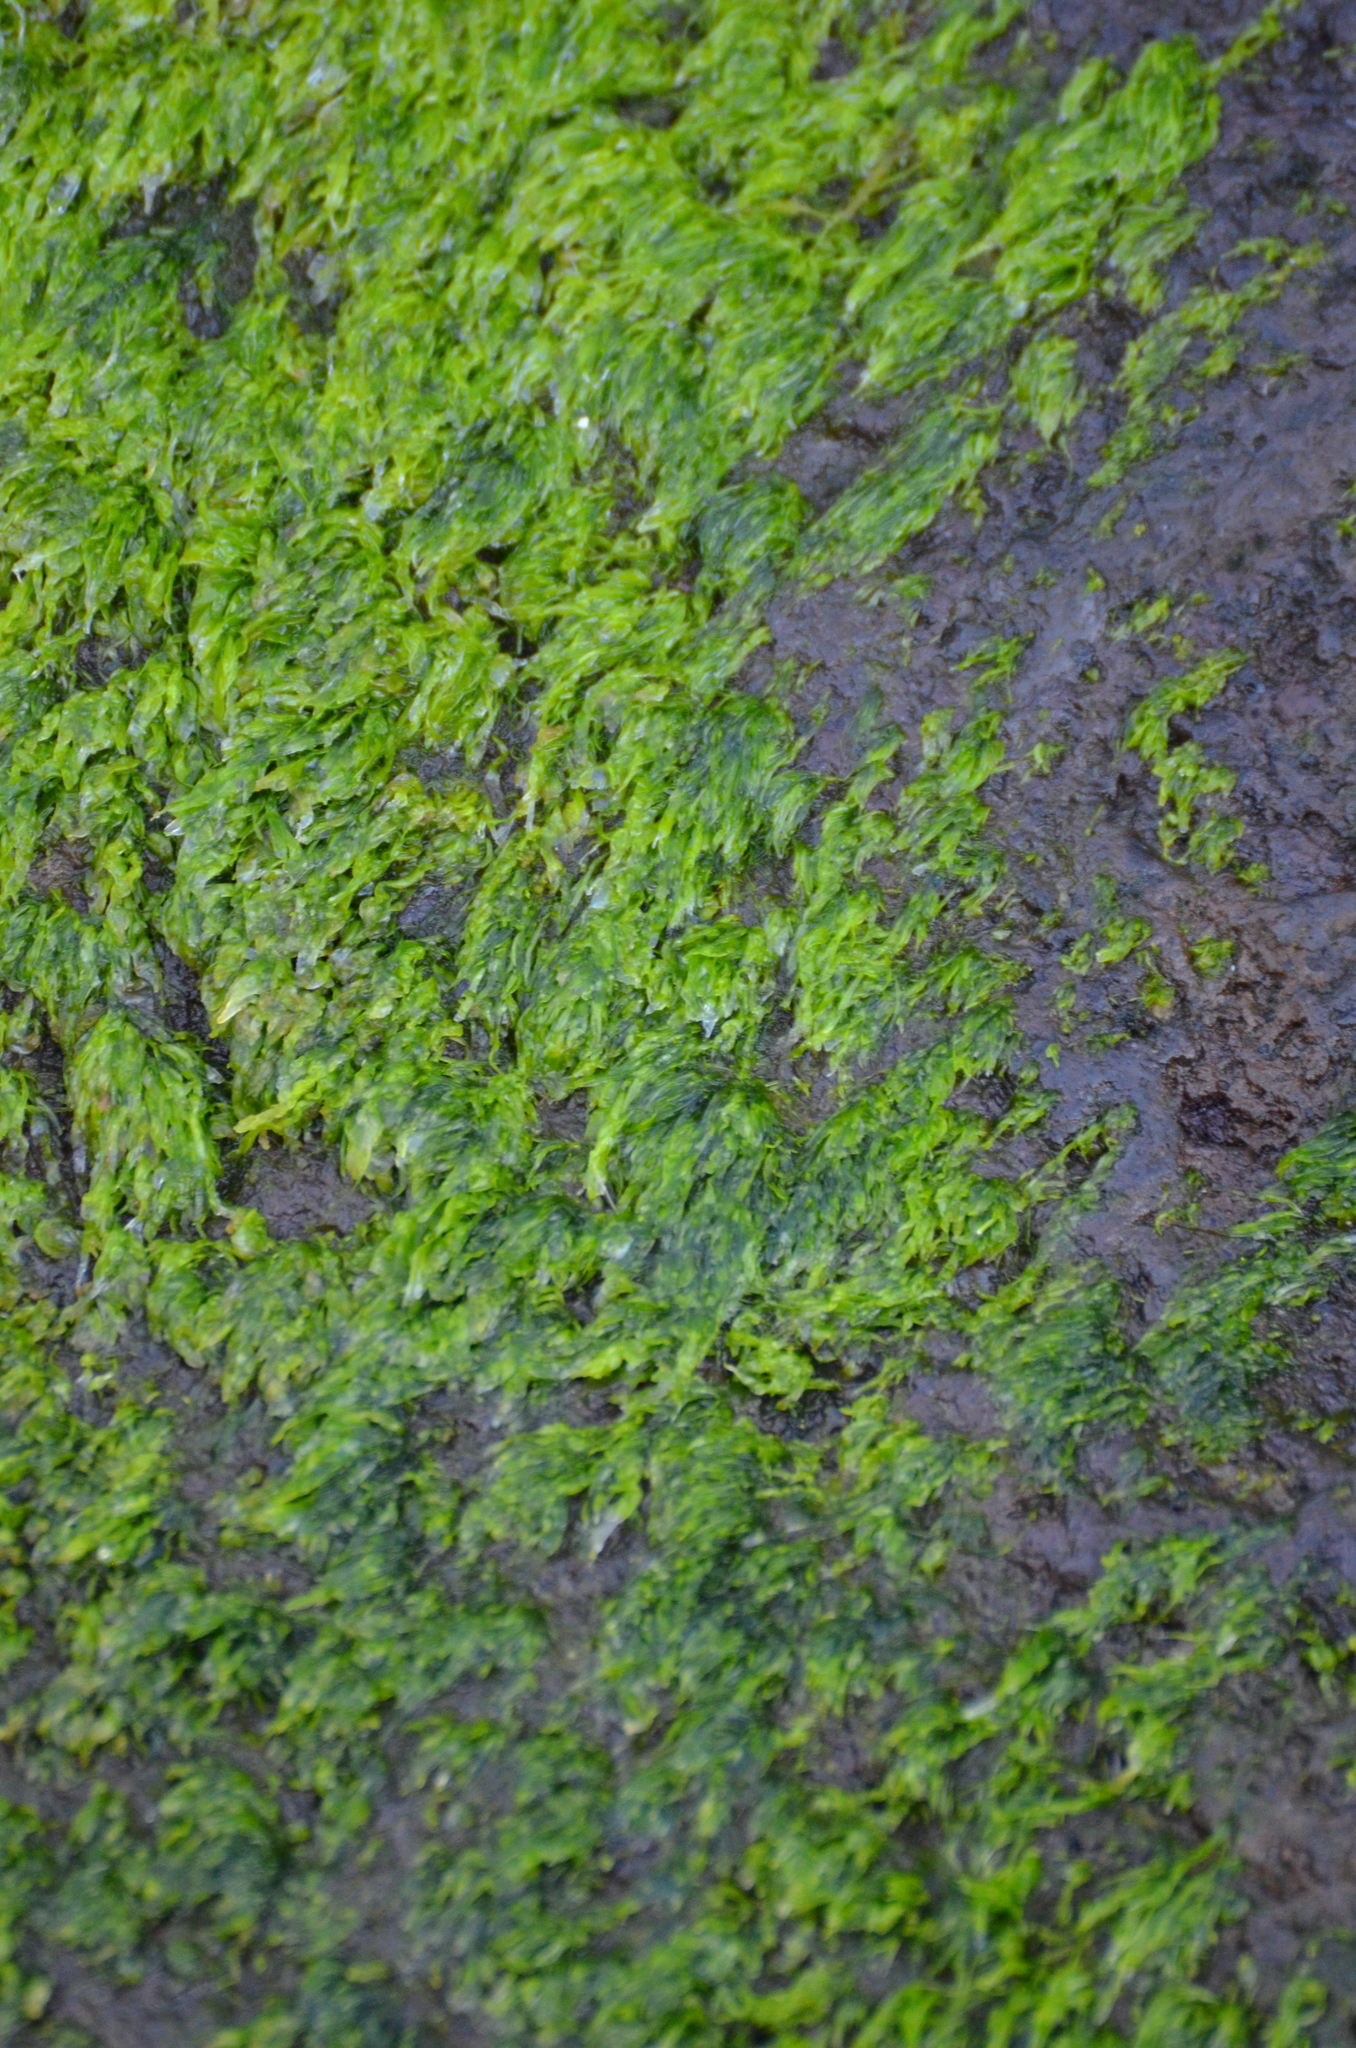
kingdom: Plantae
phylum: Chlorophyta
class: Ulvophyceae
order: Ulvales
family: Ulvaceae
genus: Ulva
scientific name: Ulva
